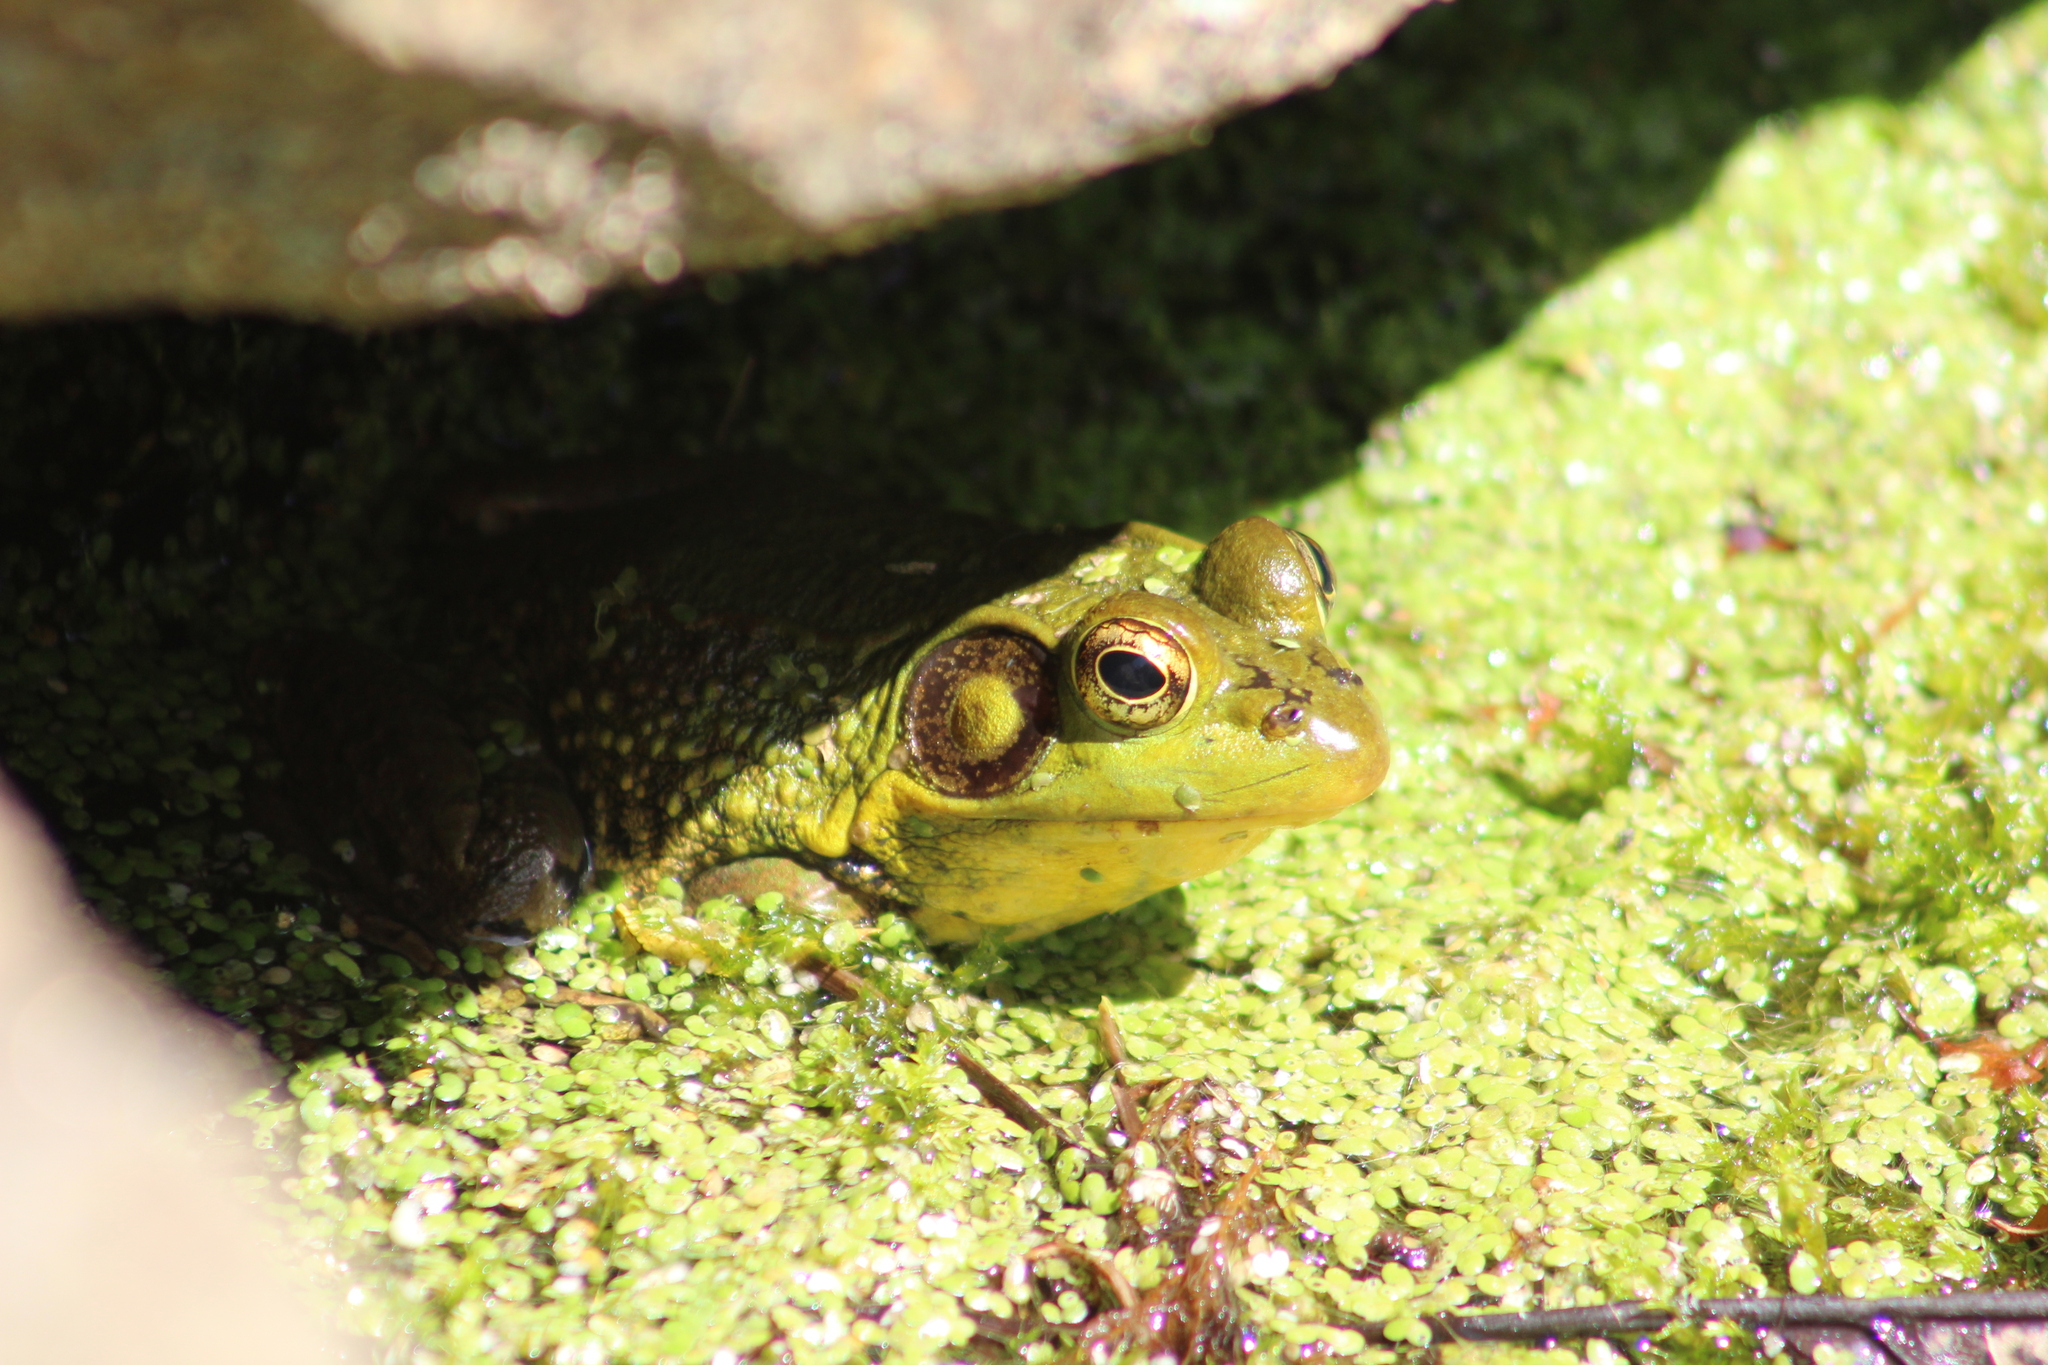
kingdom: Animalia
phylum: Chordata
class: Amphibia
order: Anura
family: Ranidae
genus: Lithobates
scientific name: Lithobates clamitans
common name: Green frog
